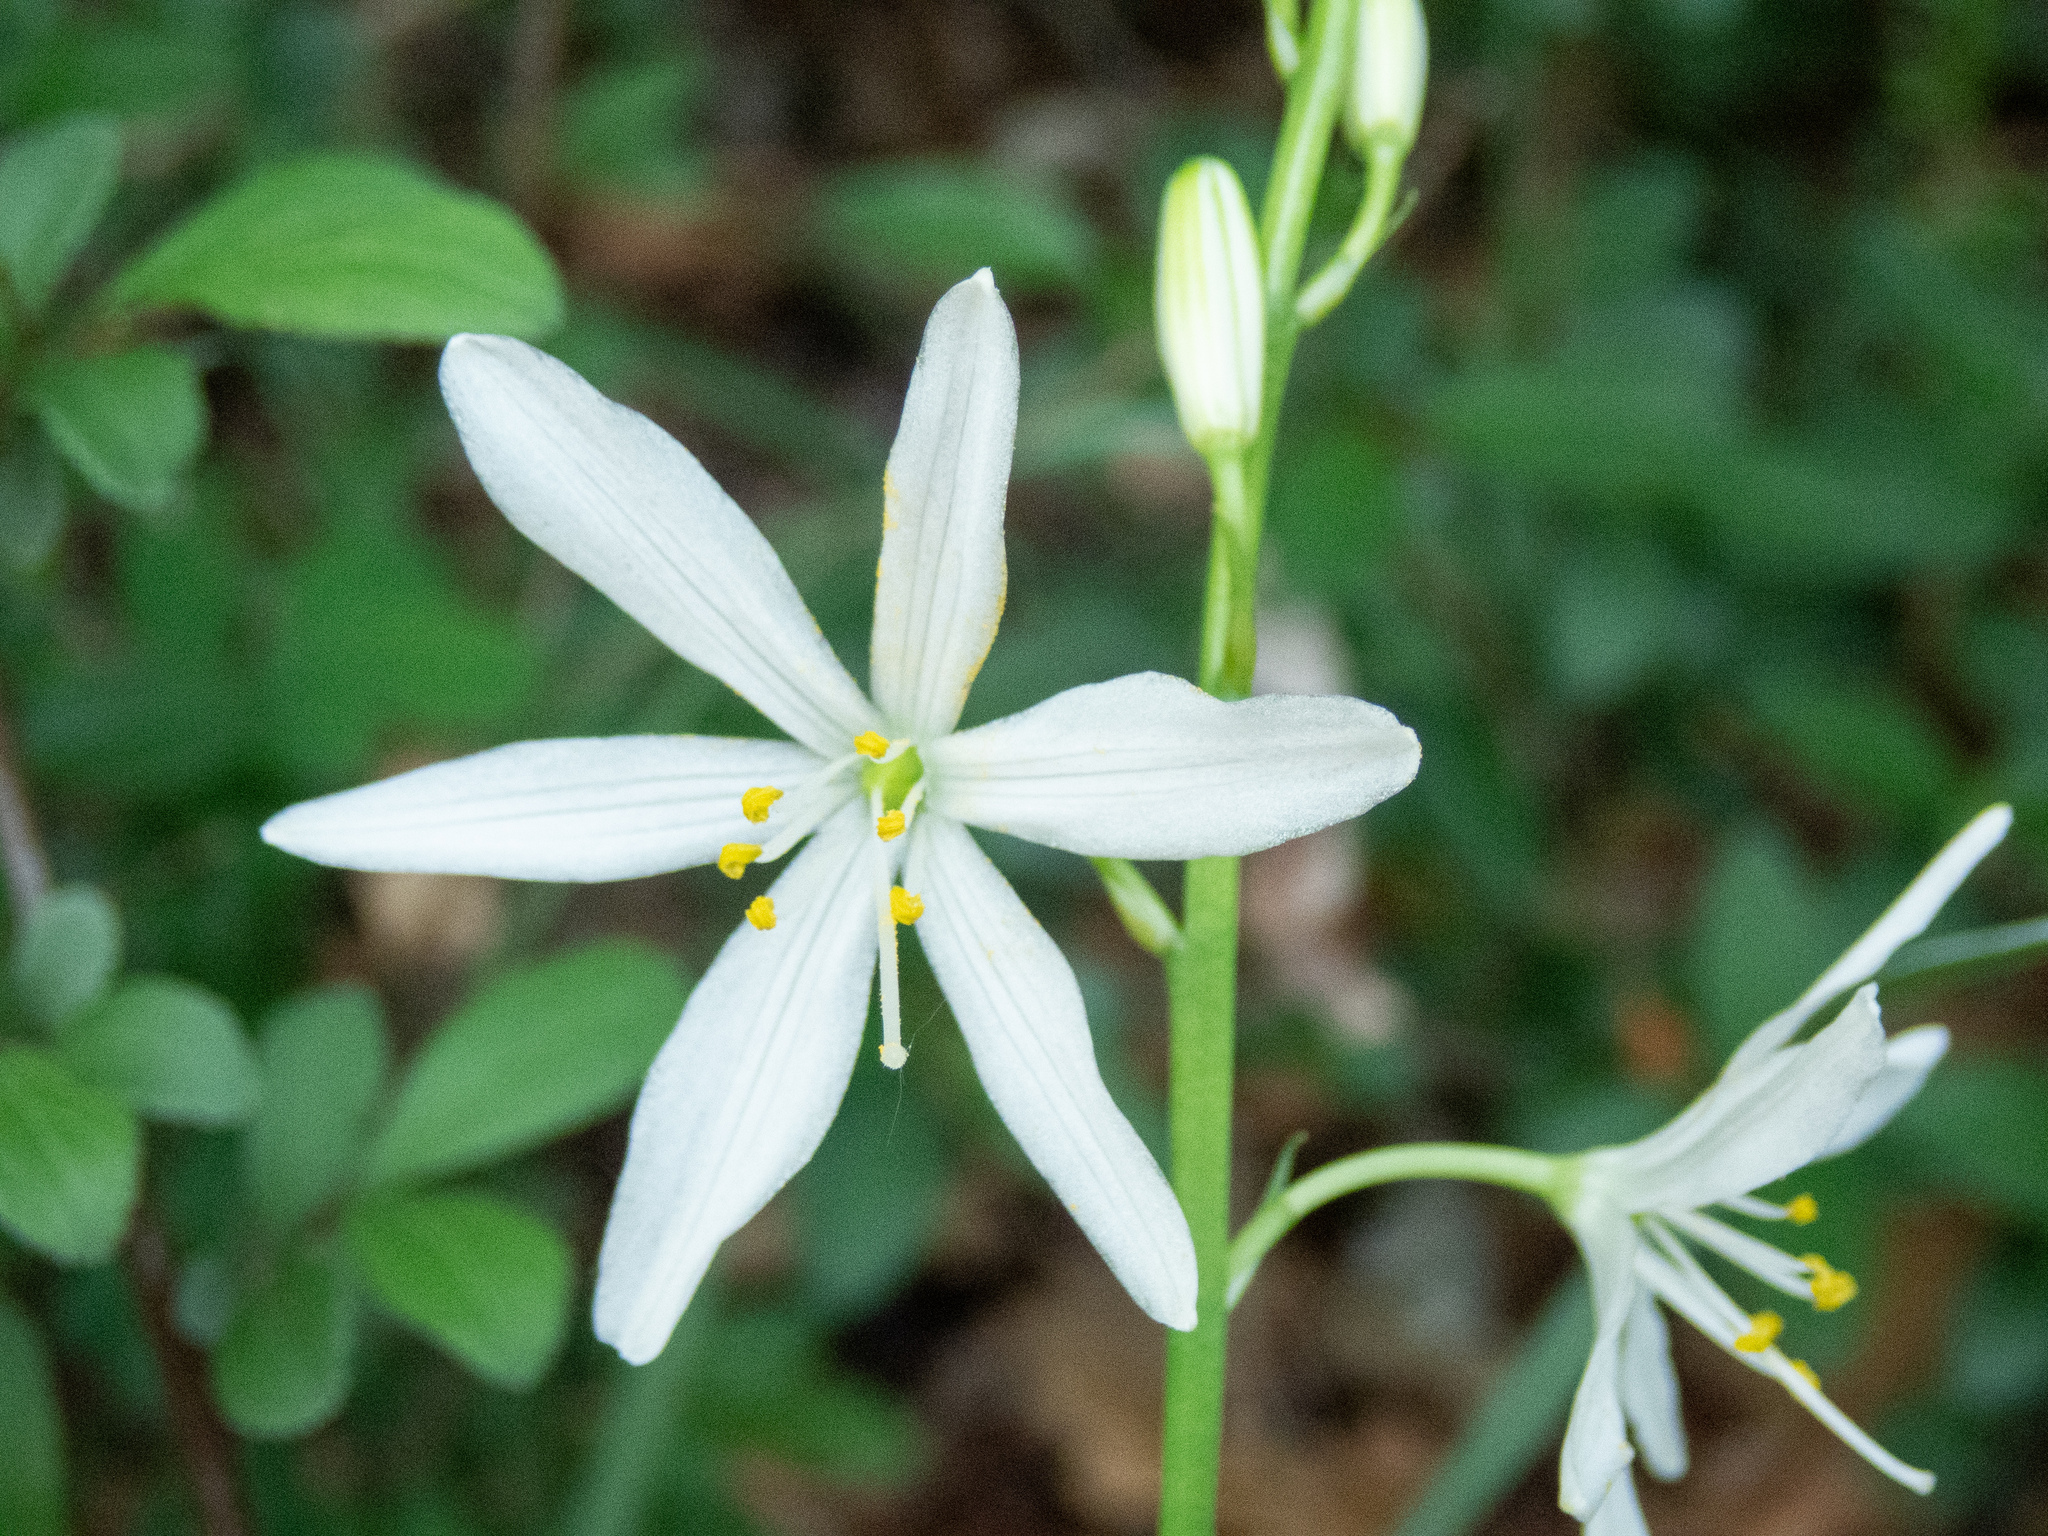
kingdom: Plantae
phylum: Tracheophyta
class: Liliopsida
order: Asparagales
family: Asparagaceae
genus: Anthericum
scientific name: Anthericum liliago
